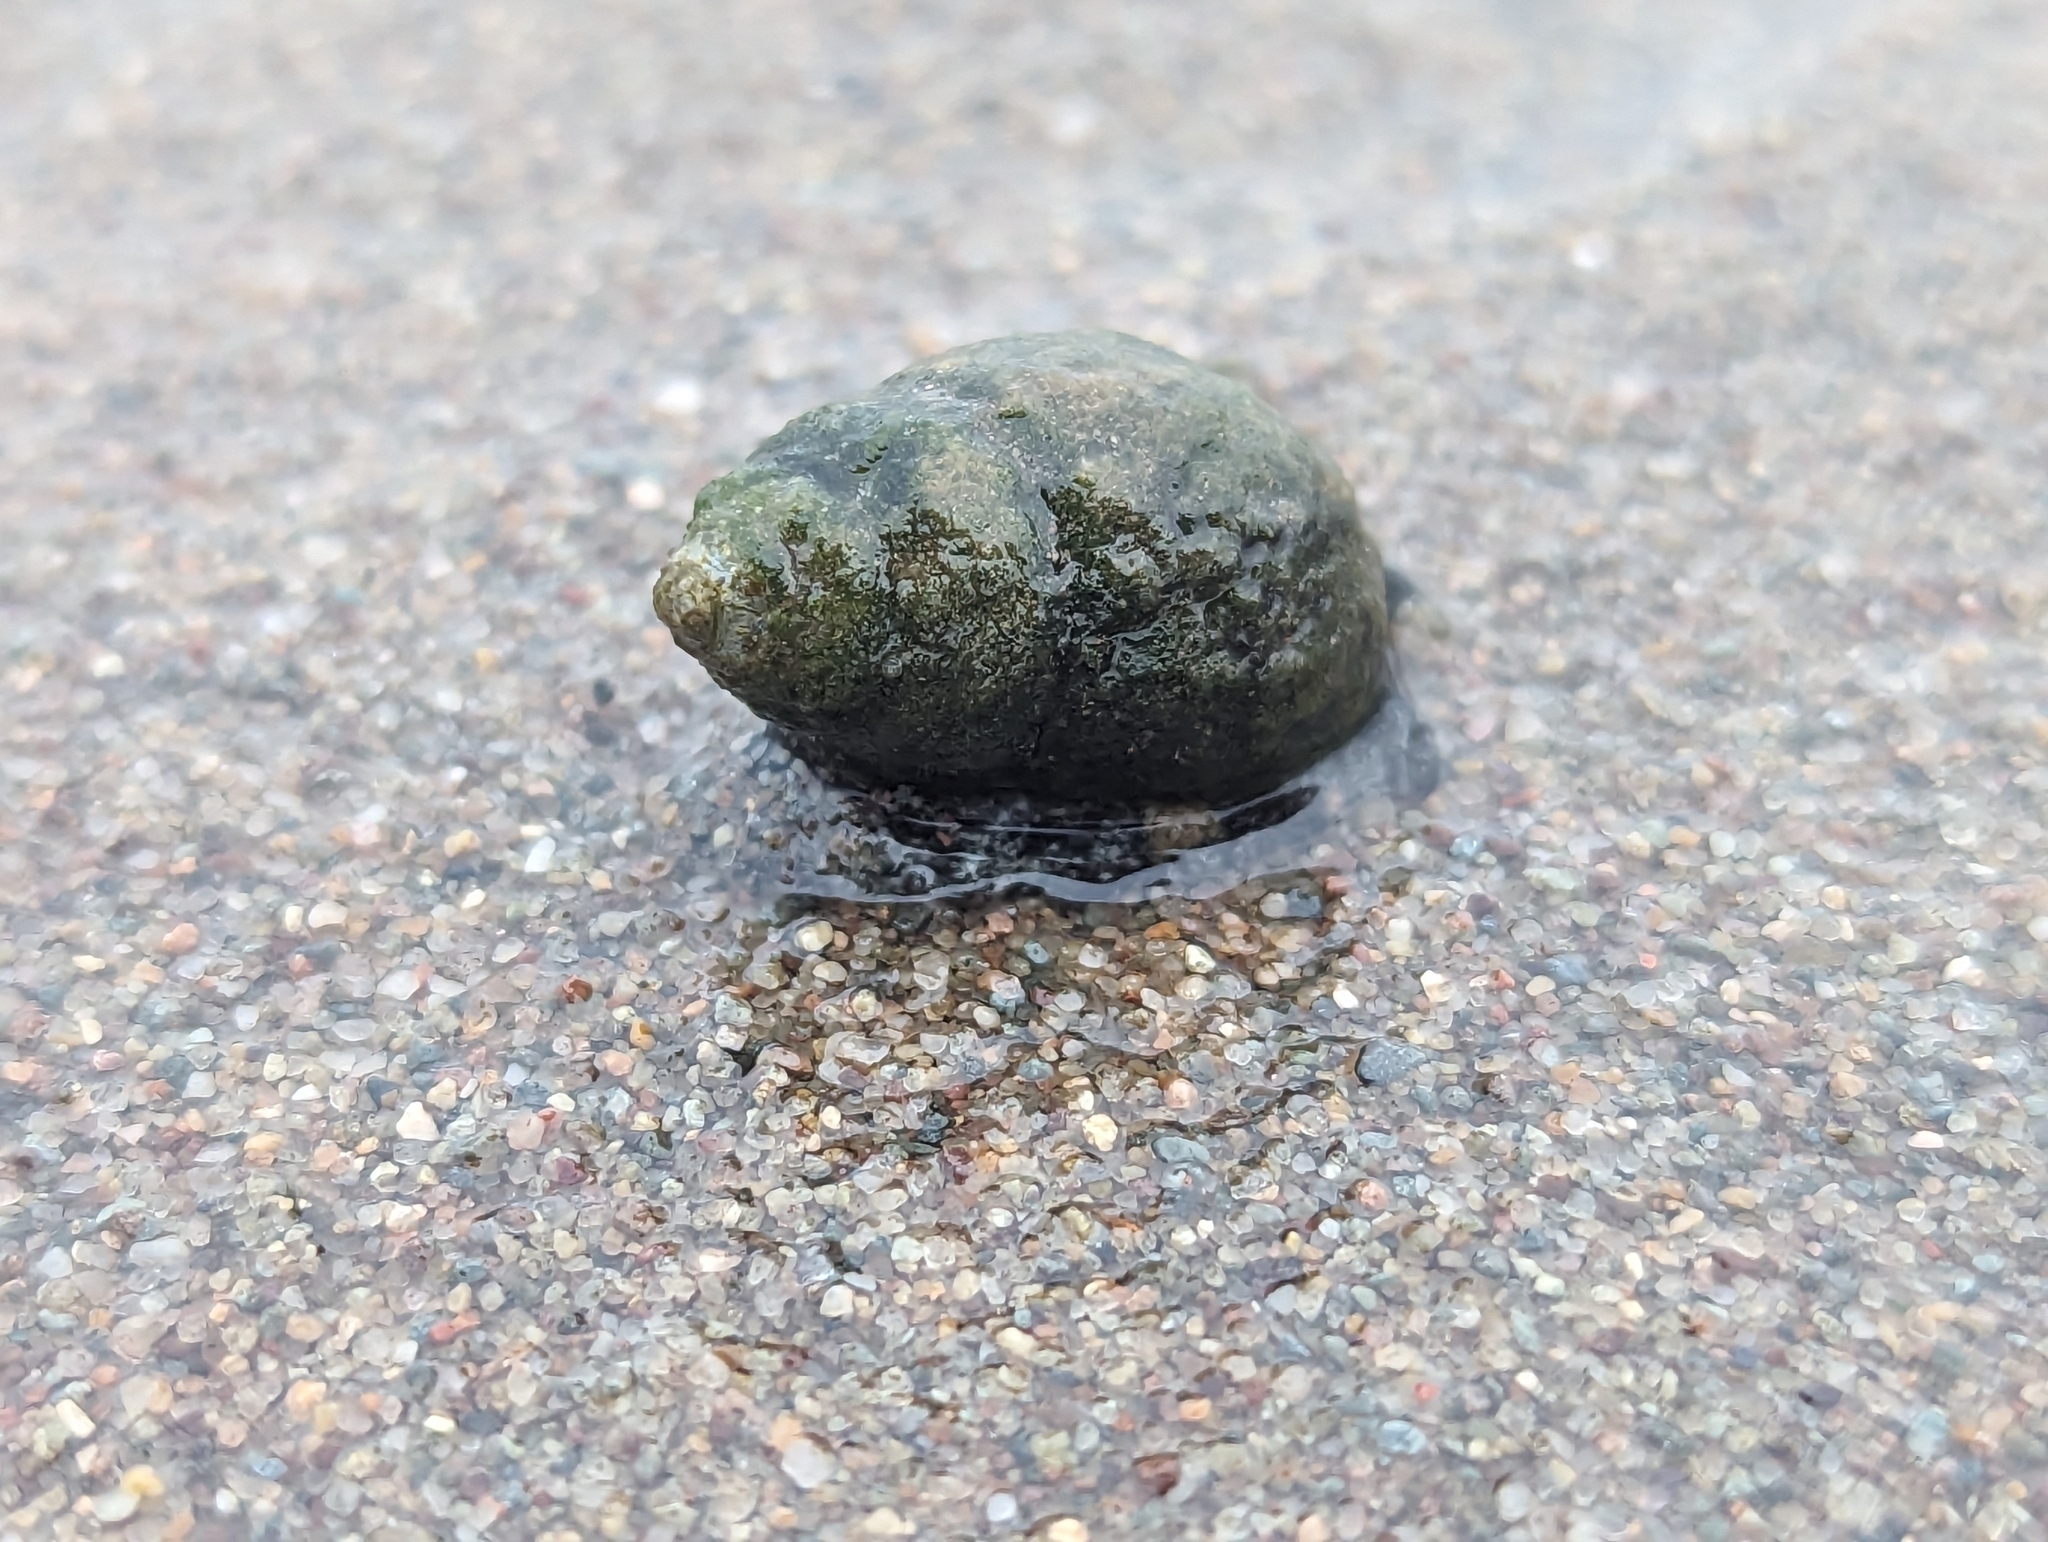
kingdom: Animalia
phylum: Mollusca
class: Gastropoda
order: Neogastropoda
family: Nassariidae
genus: Ilyanassa
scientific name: Ilyanassa obsoleta
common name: Eastern mudsnail
